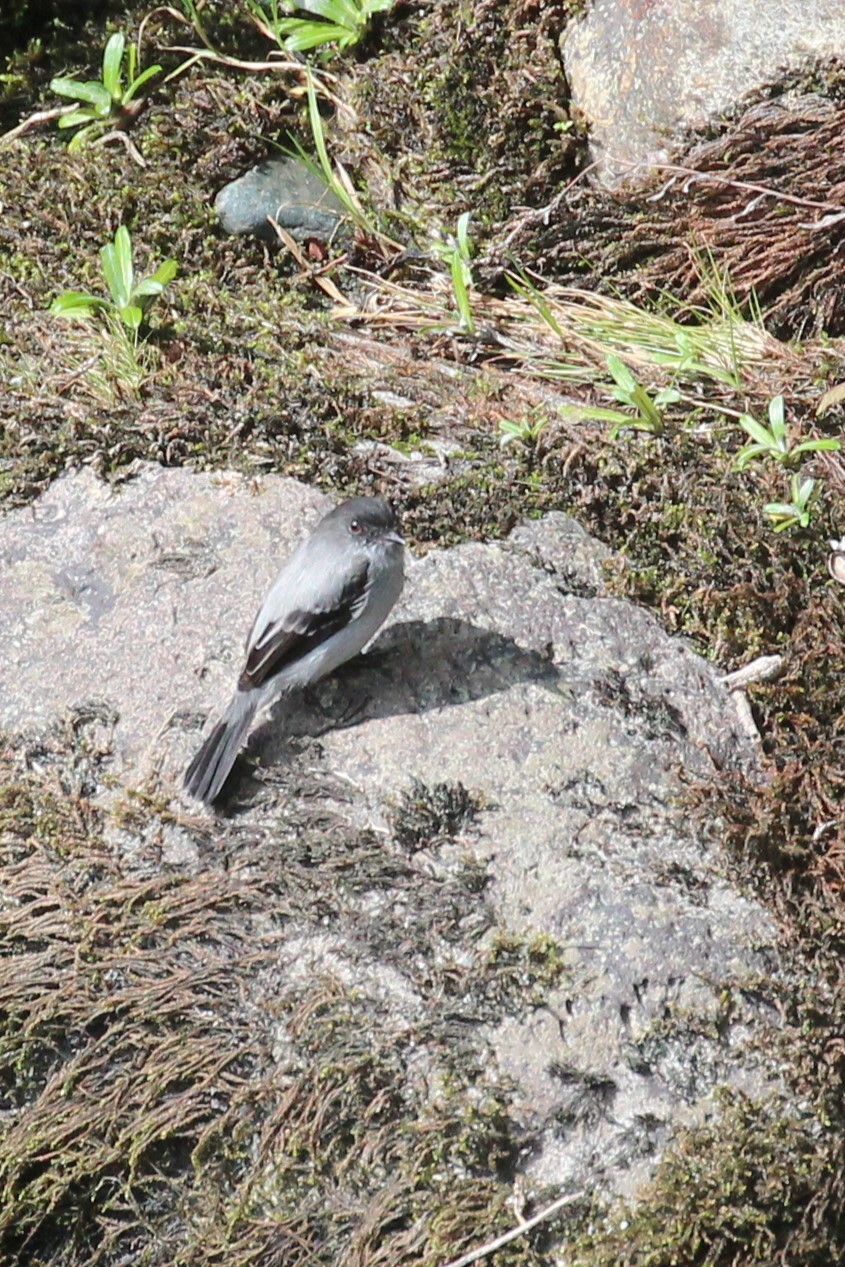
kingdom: Animalia
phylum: Chordata
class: Aves
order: Passeriformes
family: Tyrannidae
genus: Serpophaga
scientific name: Serpophaga cinerea
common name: Torrent tyrannulet
